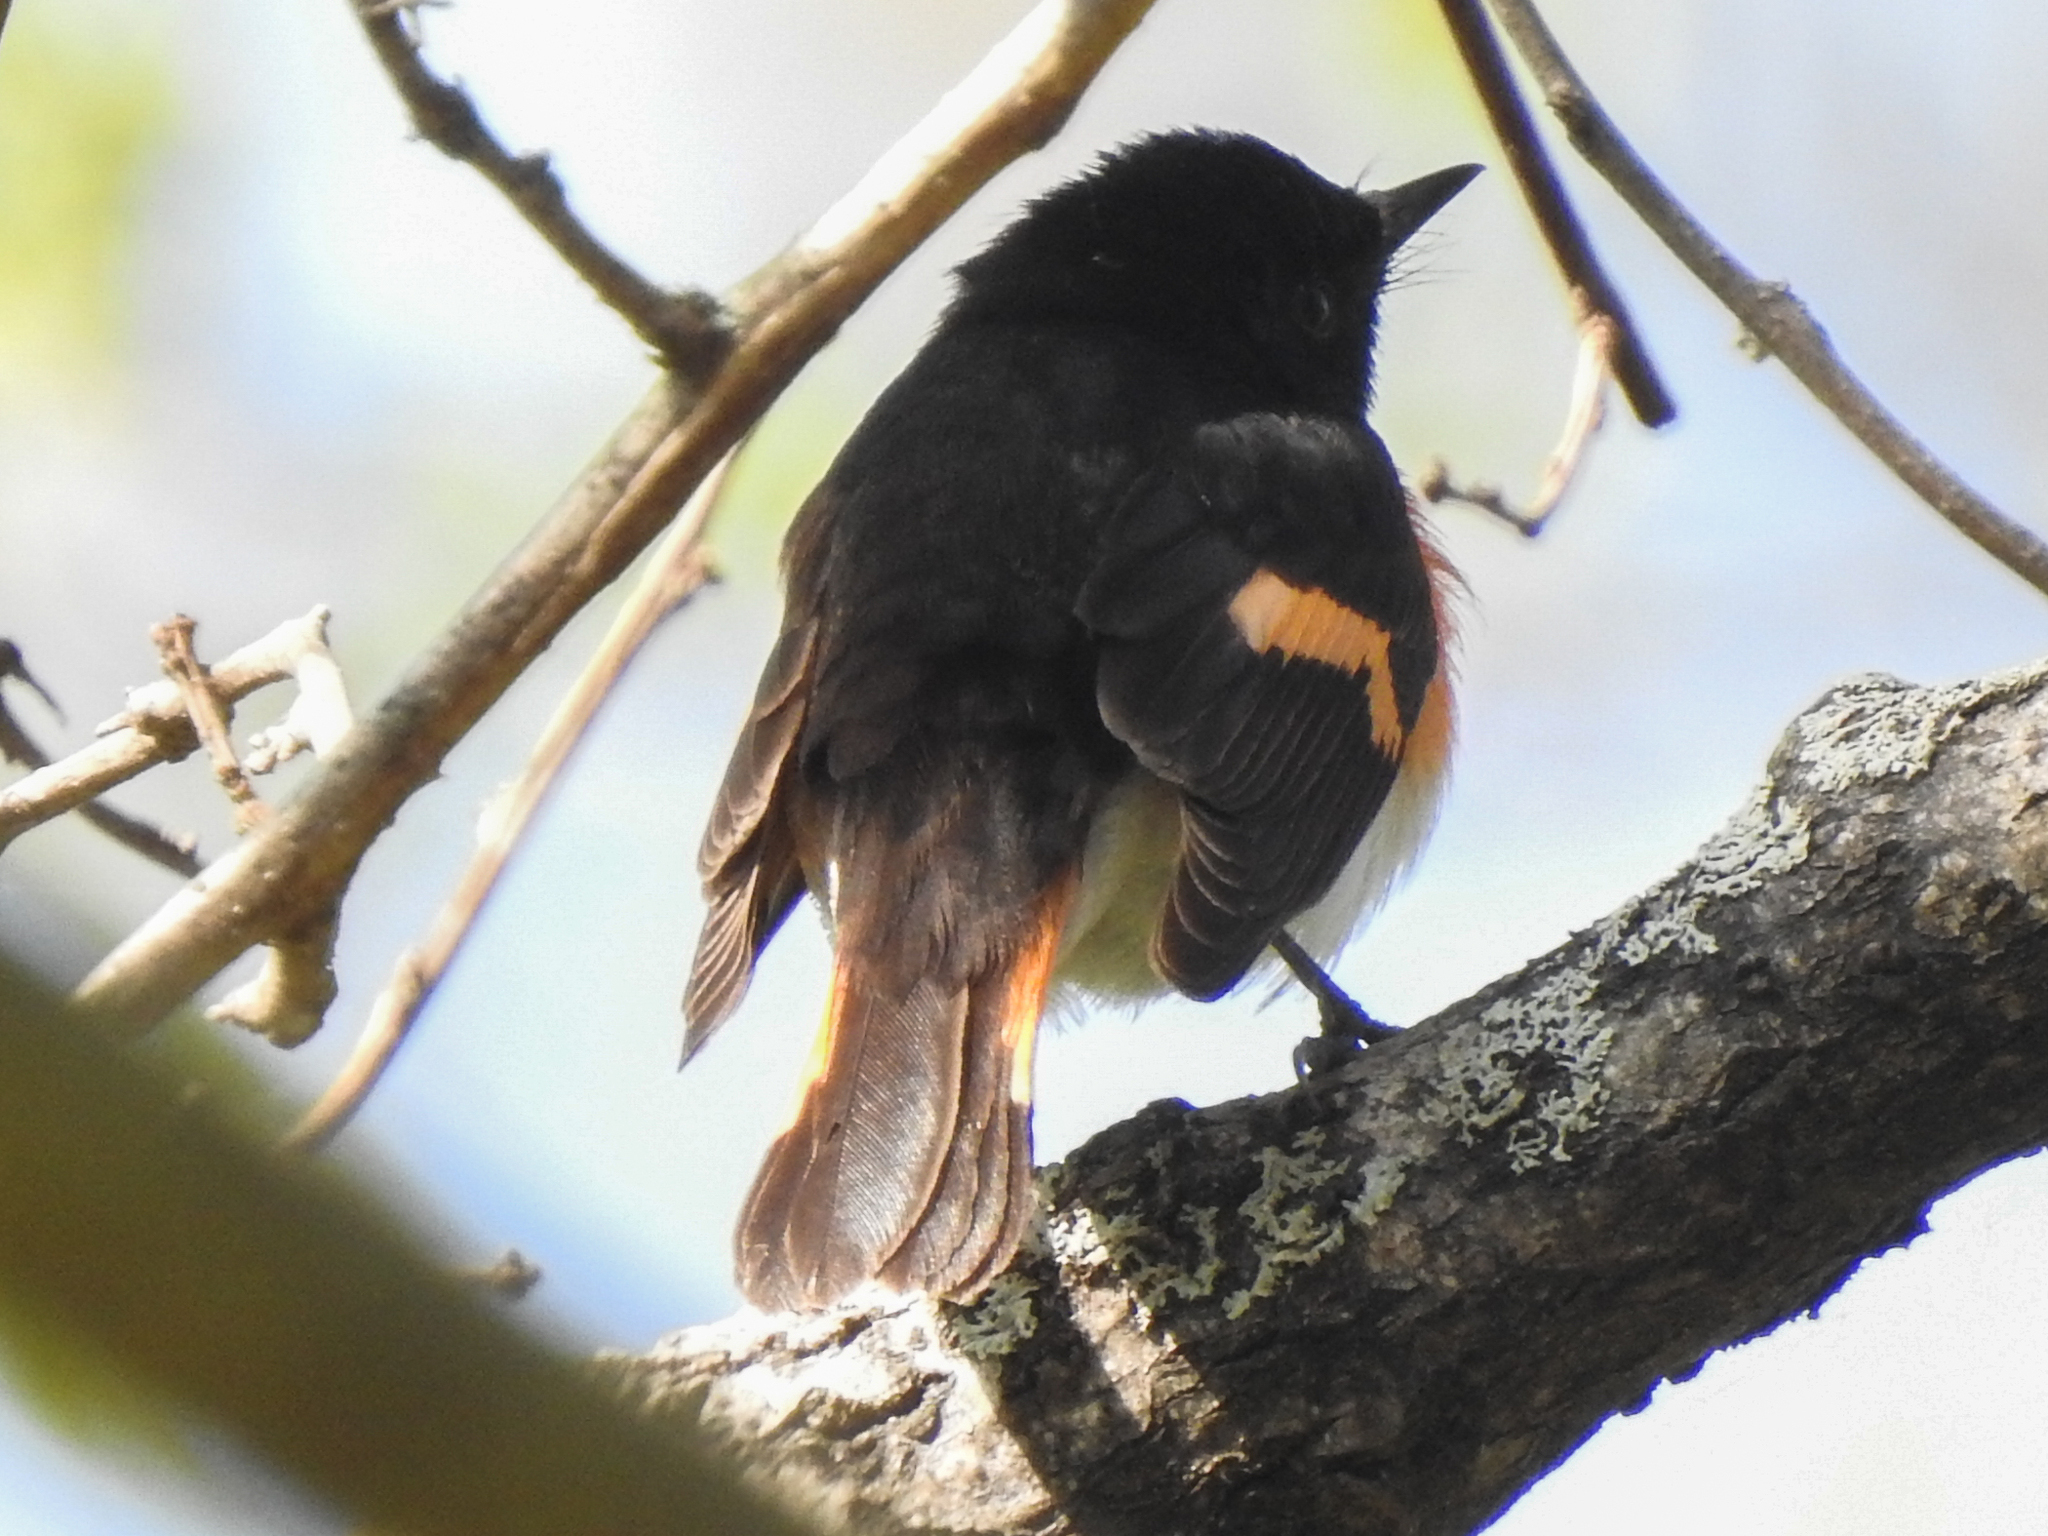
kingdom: Animalia
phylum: Chordata
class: Aves
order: Passeriformes
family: Parulidae
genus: Setophaga
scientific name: Setophaga ruticilla
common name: American redstart
